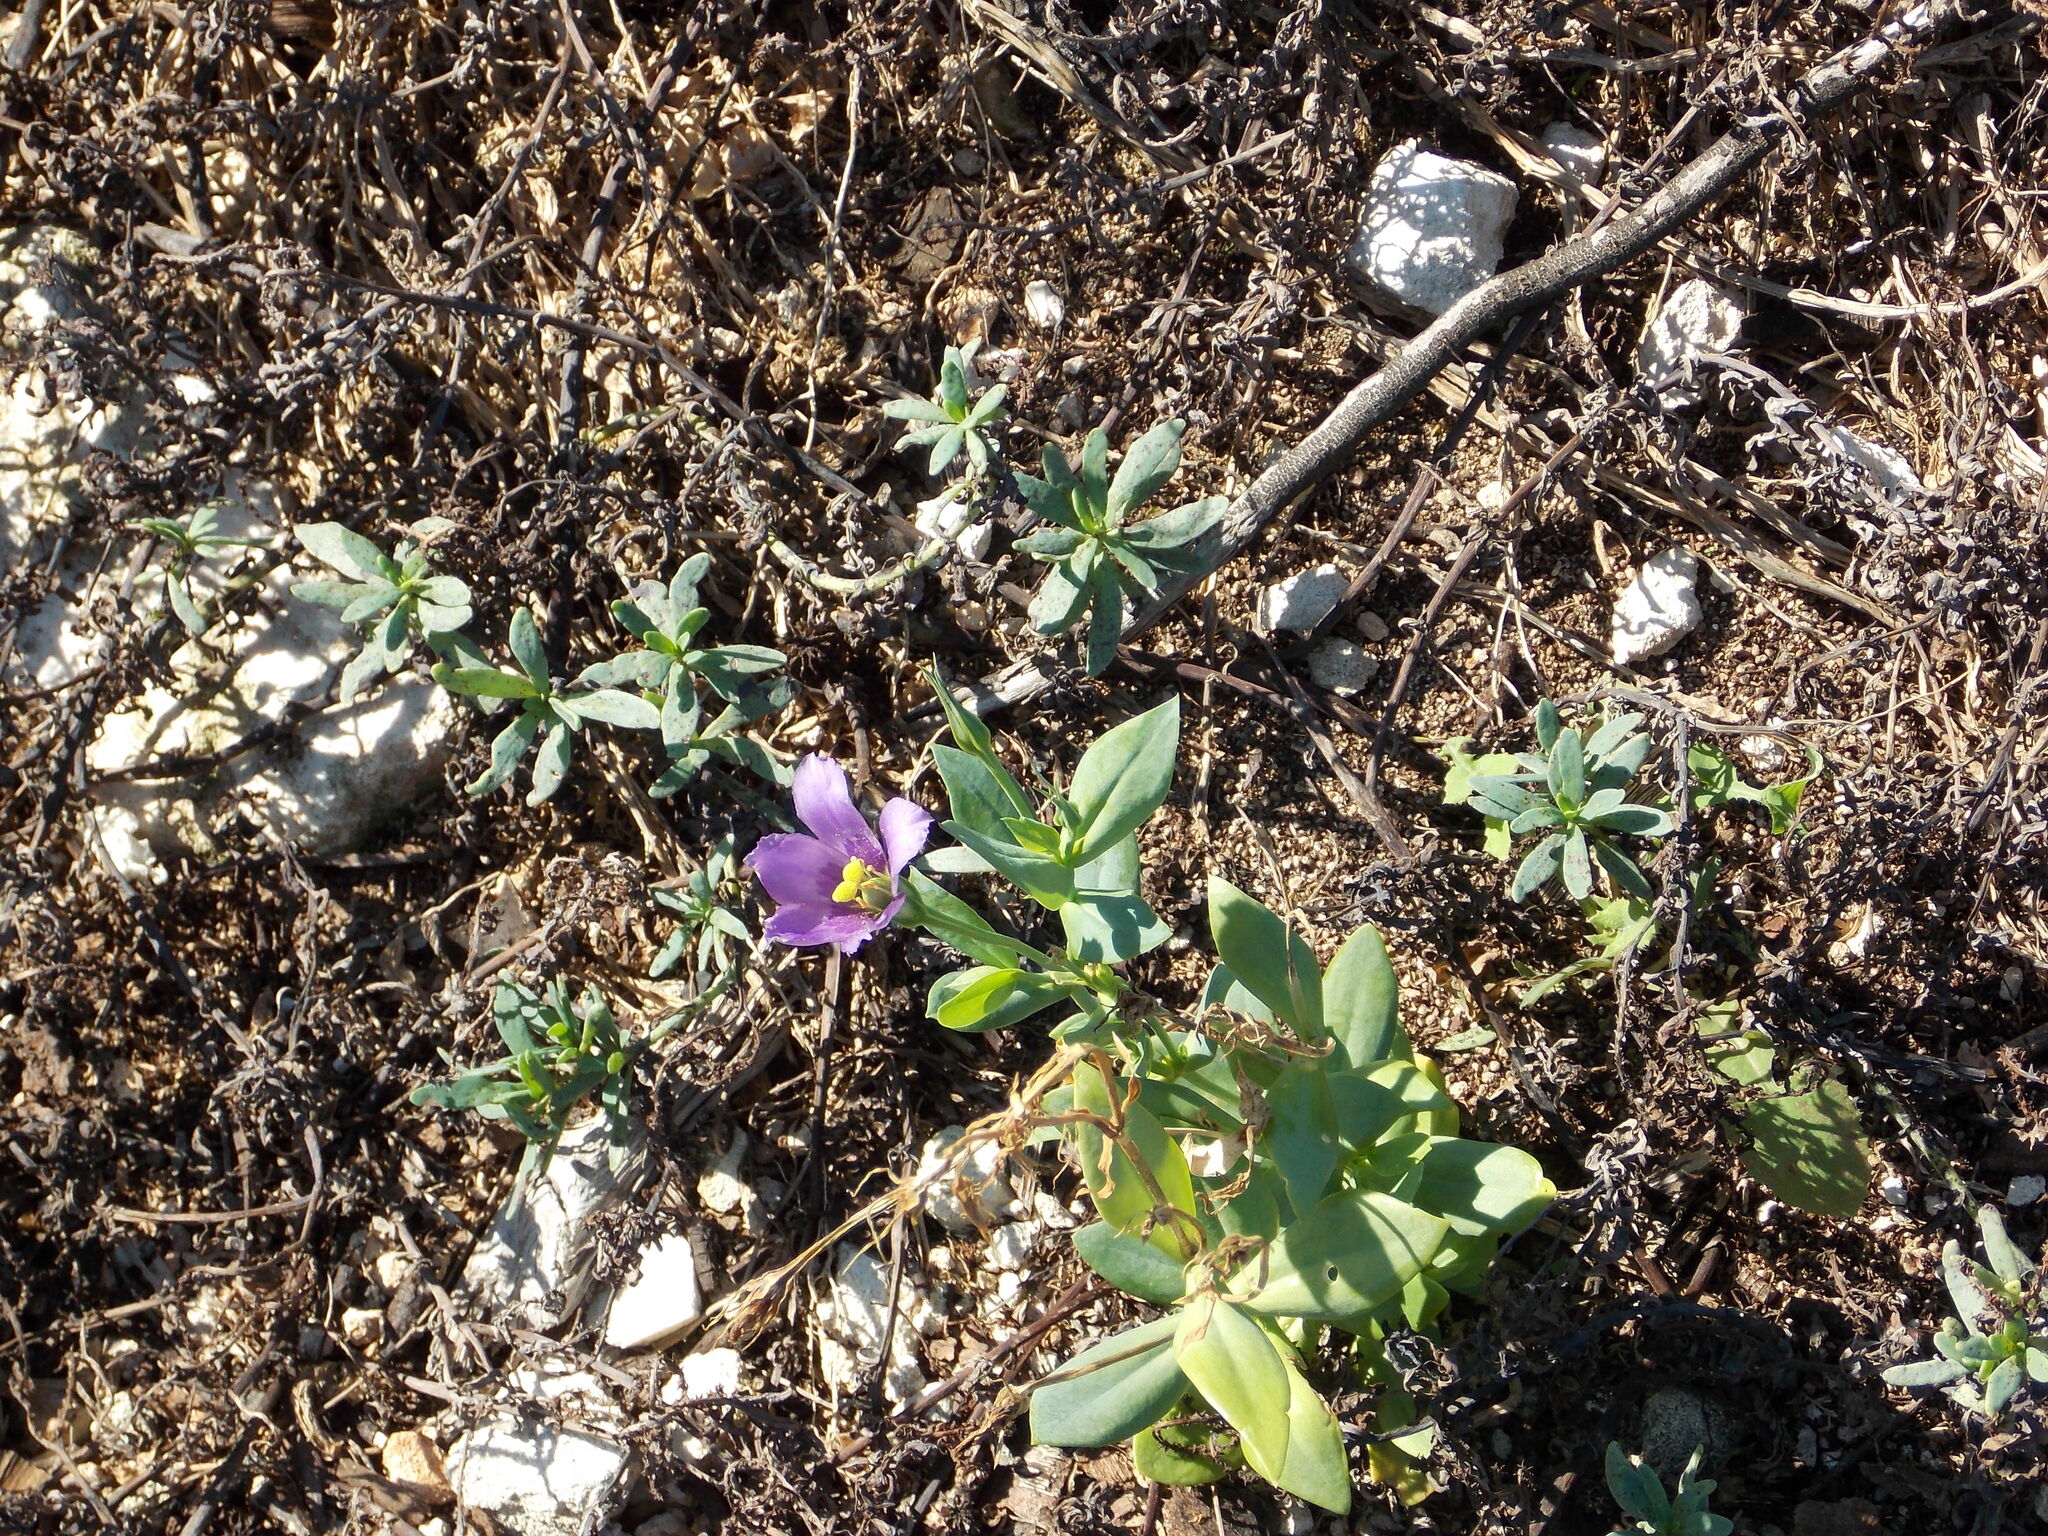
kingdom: Plantae
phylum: Tracheophyta
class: Magnoliopsida
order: Gentianales
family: Gentianaceae
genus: Eustoma
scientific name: Eustoma exaltatum
